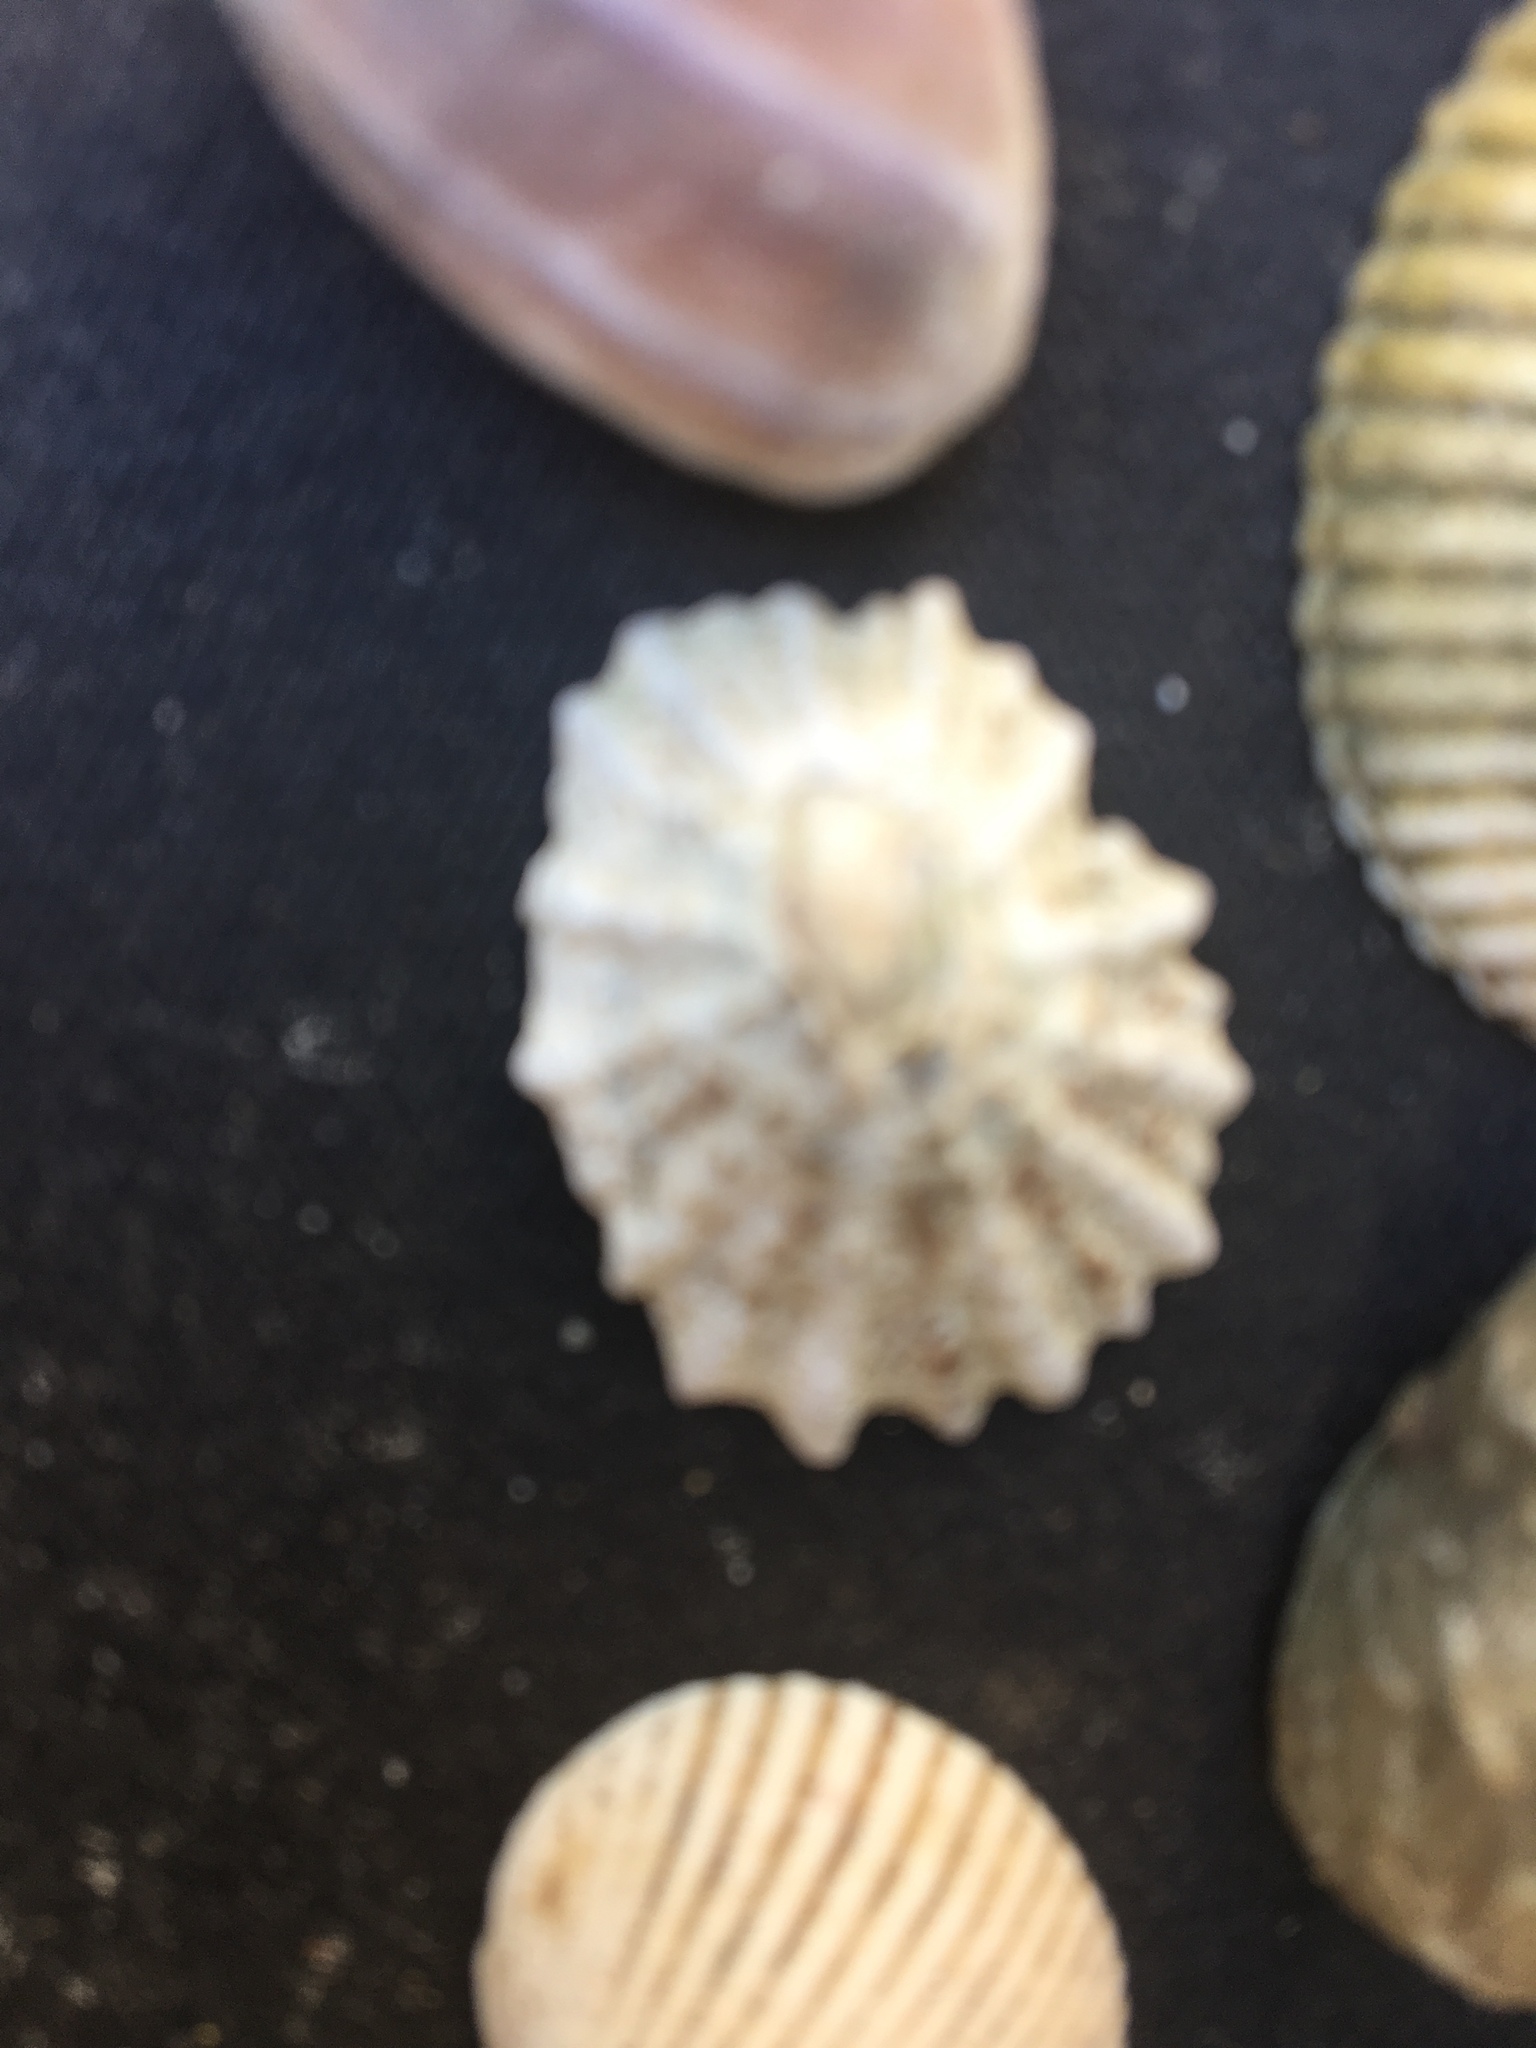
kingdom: Animalia
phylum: Mollusca
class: Gastropoda
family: Lottiidae
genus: Lottia
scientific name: Lottia scabra
